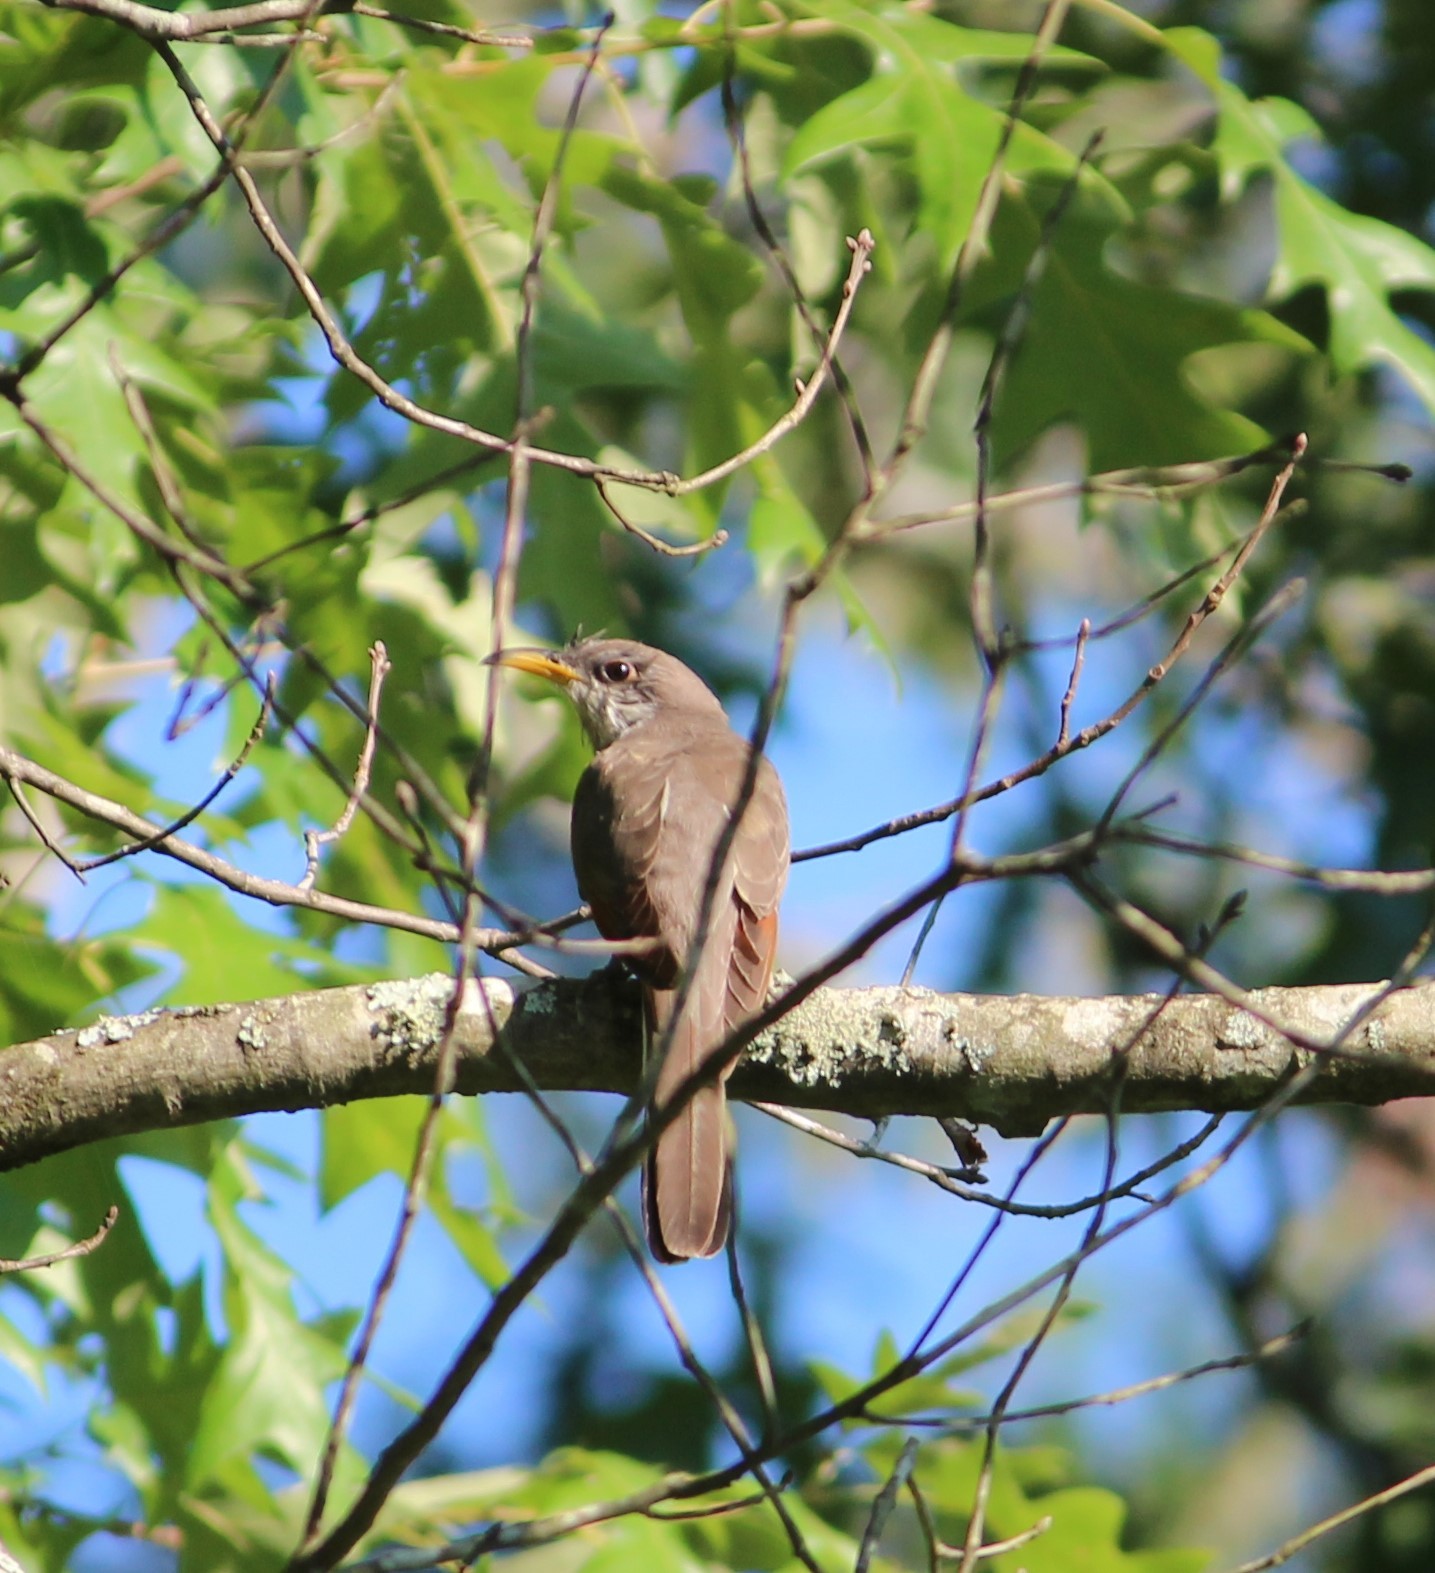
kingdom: Animalia
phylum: Chordata
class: Aves
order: Cuculiformes
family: Cuculidae
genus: Coccyzus
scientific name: Coccyzus americanus
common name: Yellow-billed cuckoo
